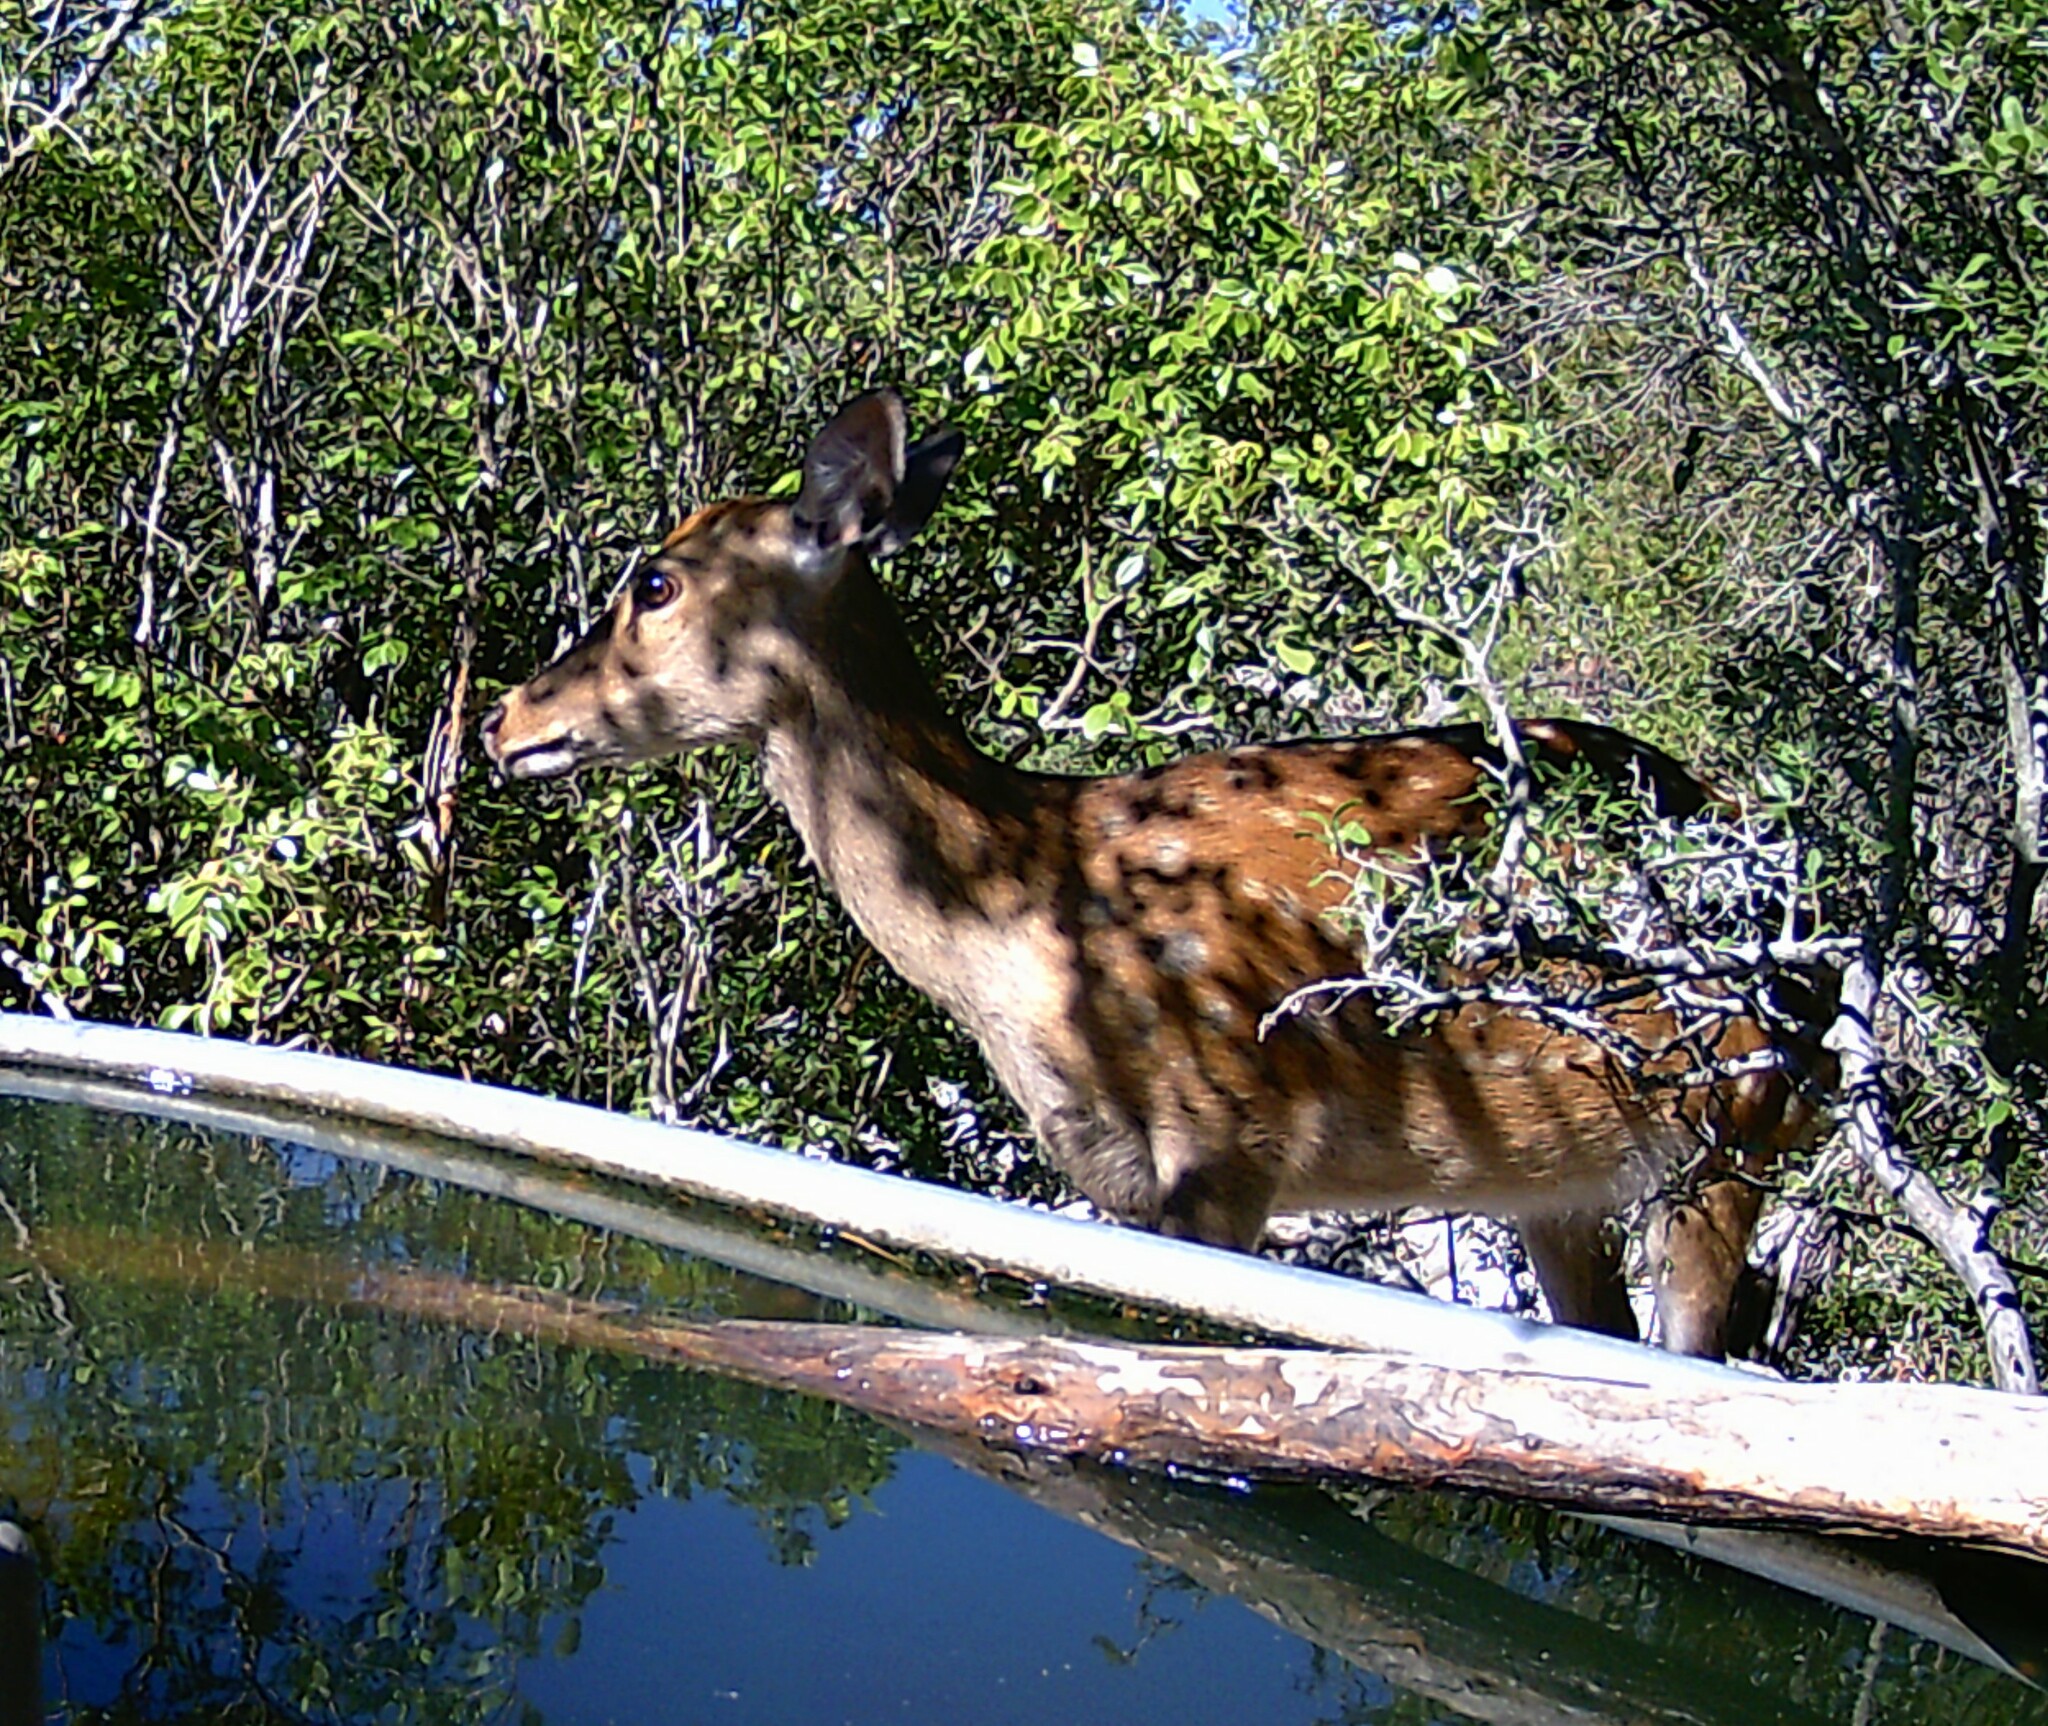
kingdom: Animalia
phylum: Chordata
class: Mammalia
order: Artiodactyla
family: Cervidae
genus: Axis
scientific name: Axis axis
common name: Chital
